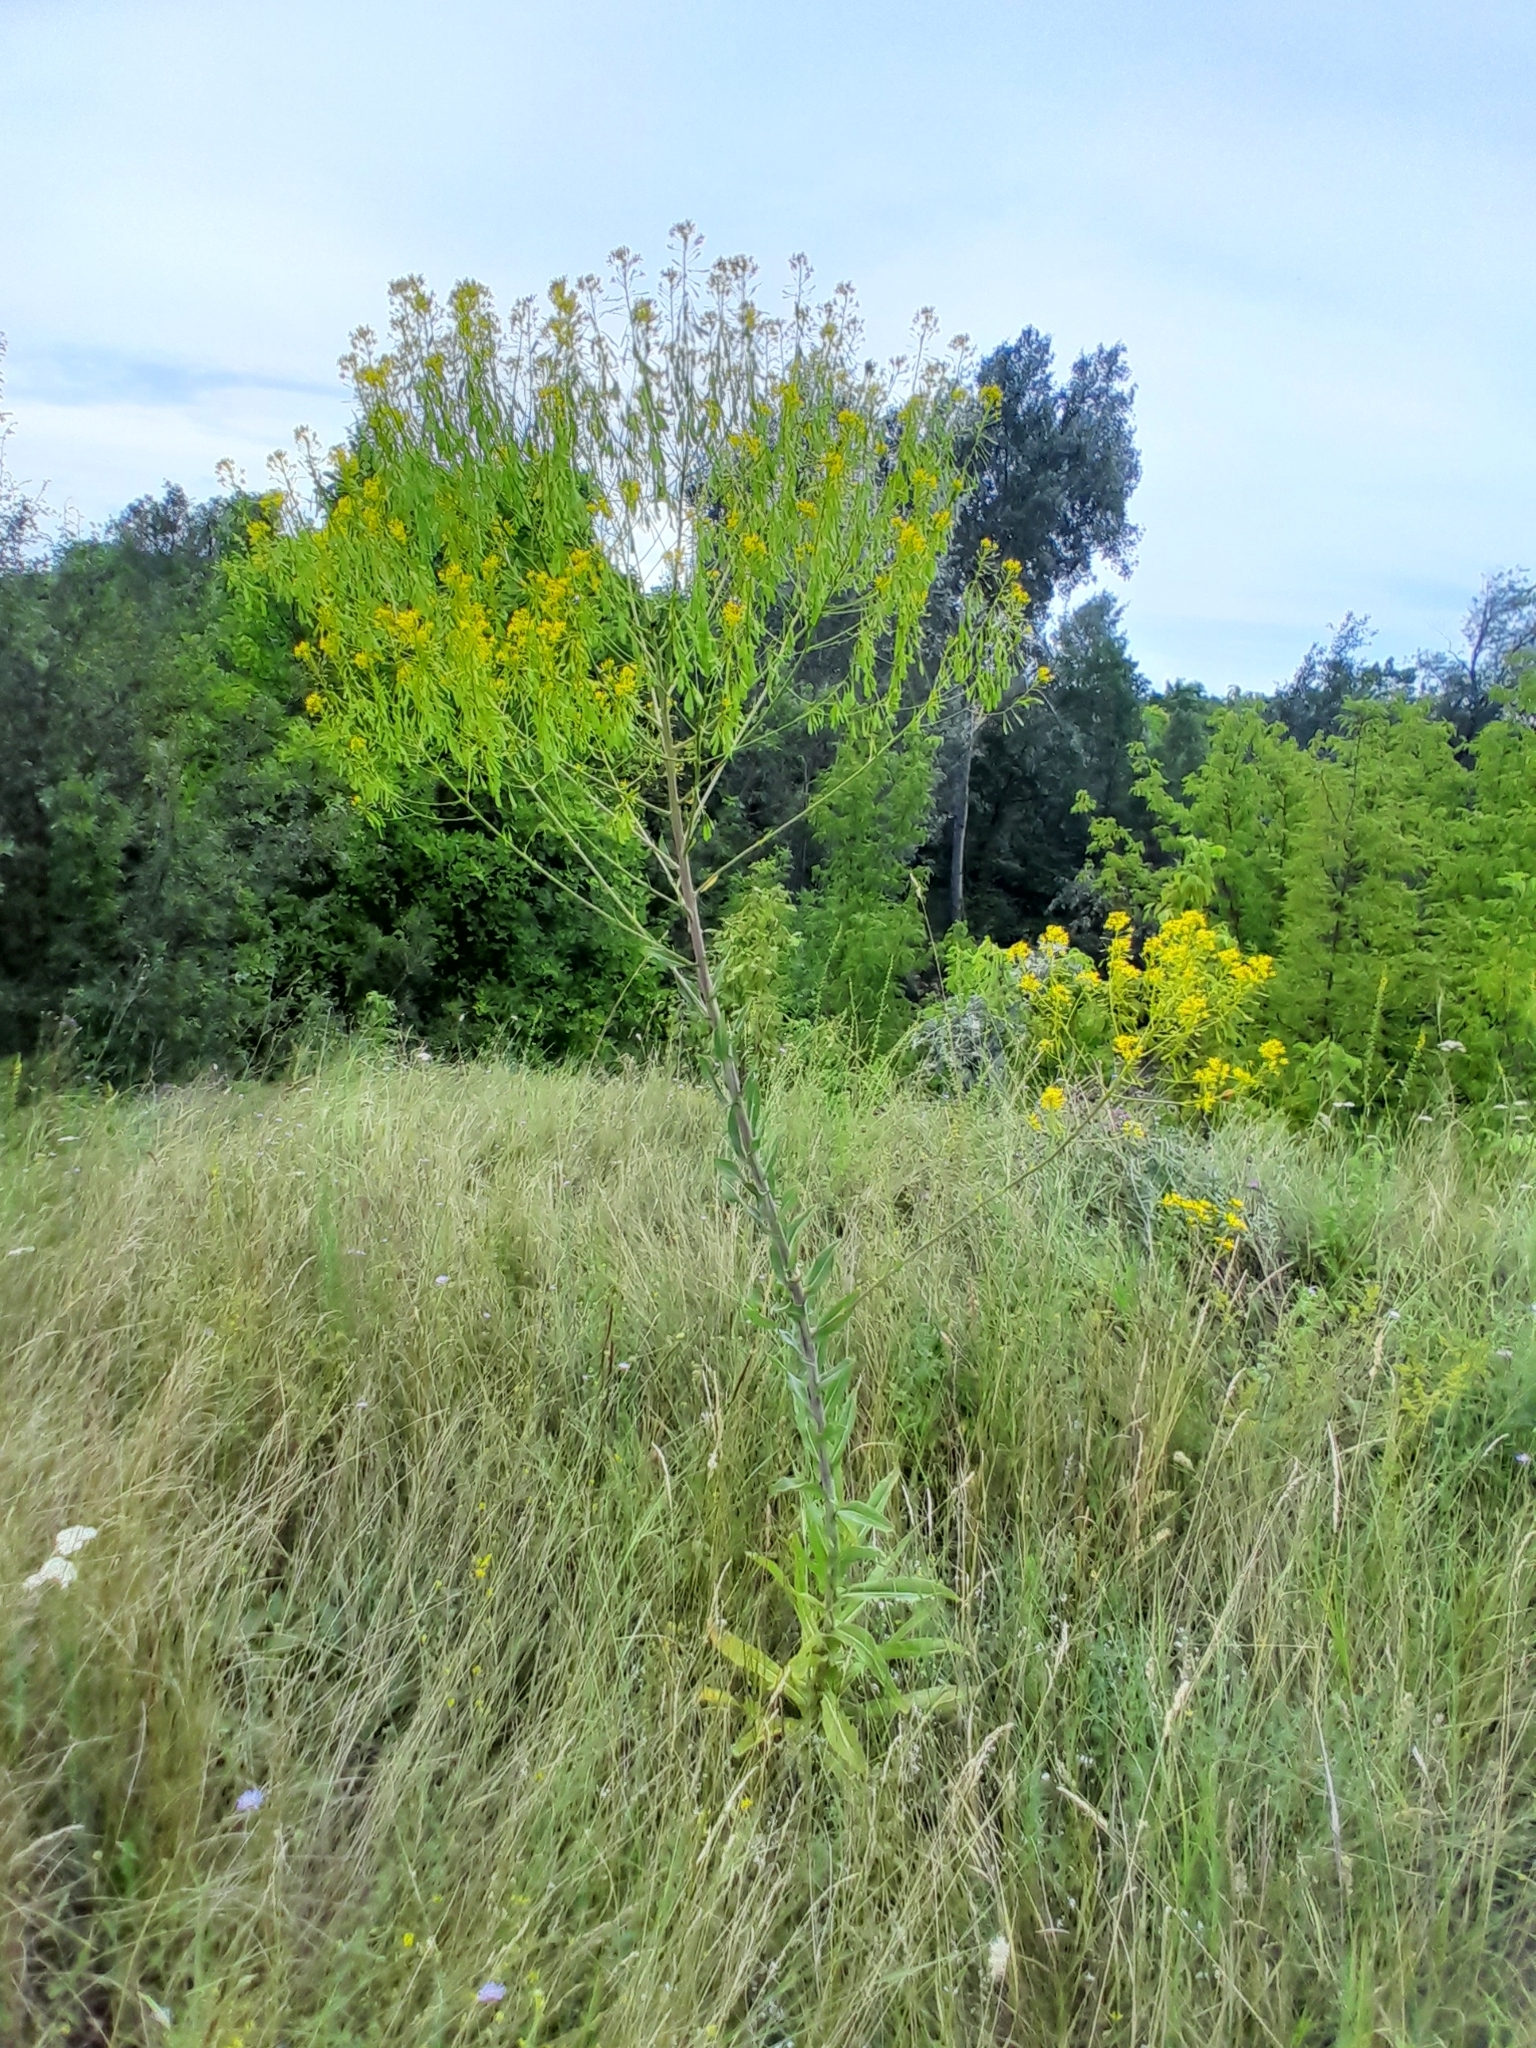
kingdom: Plantae
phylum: Tracheophyta
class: Magnoliopsida
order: Brassicales
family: Brassicaceae
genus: Isatis
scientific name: Isatis tinctoria
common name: Woad
